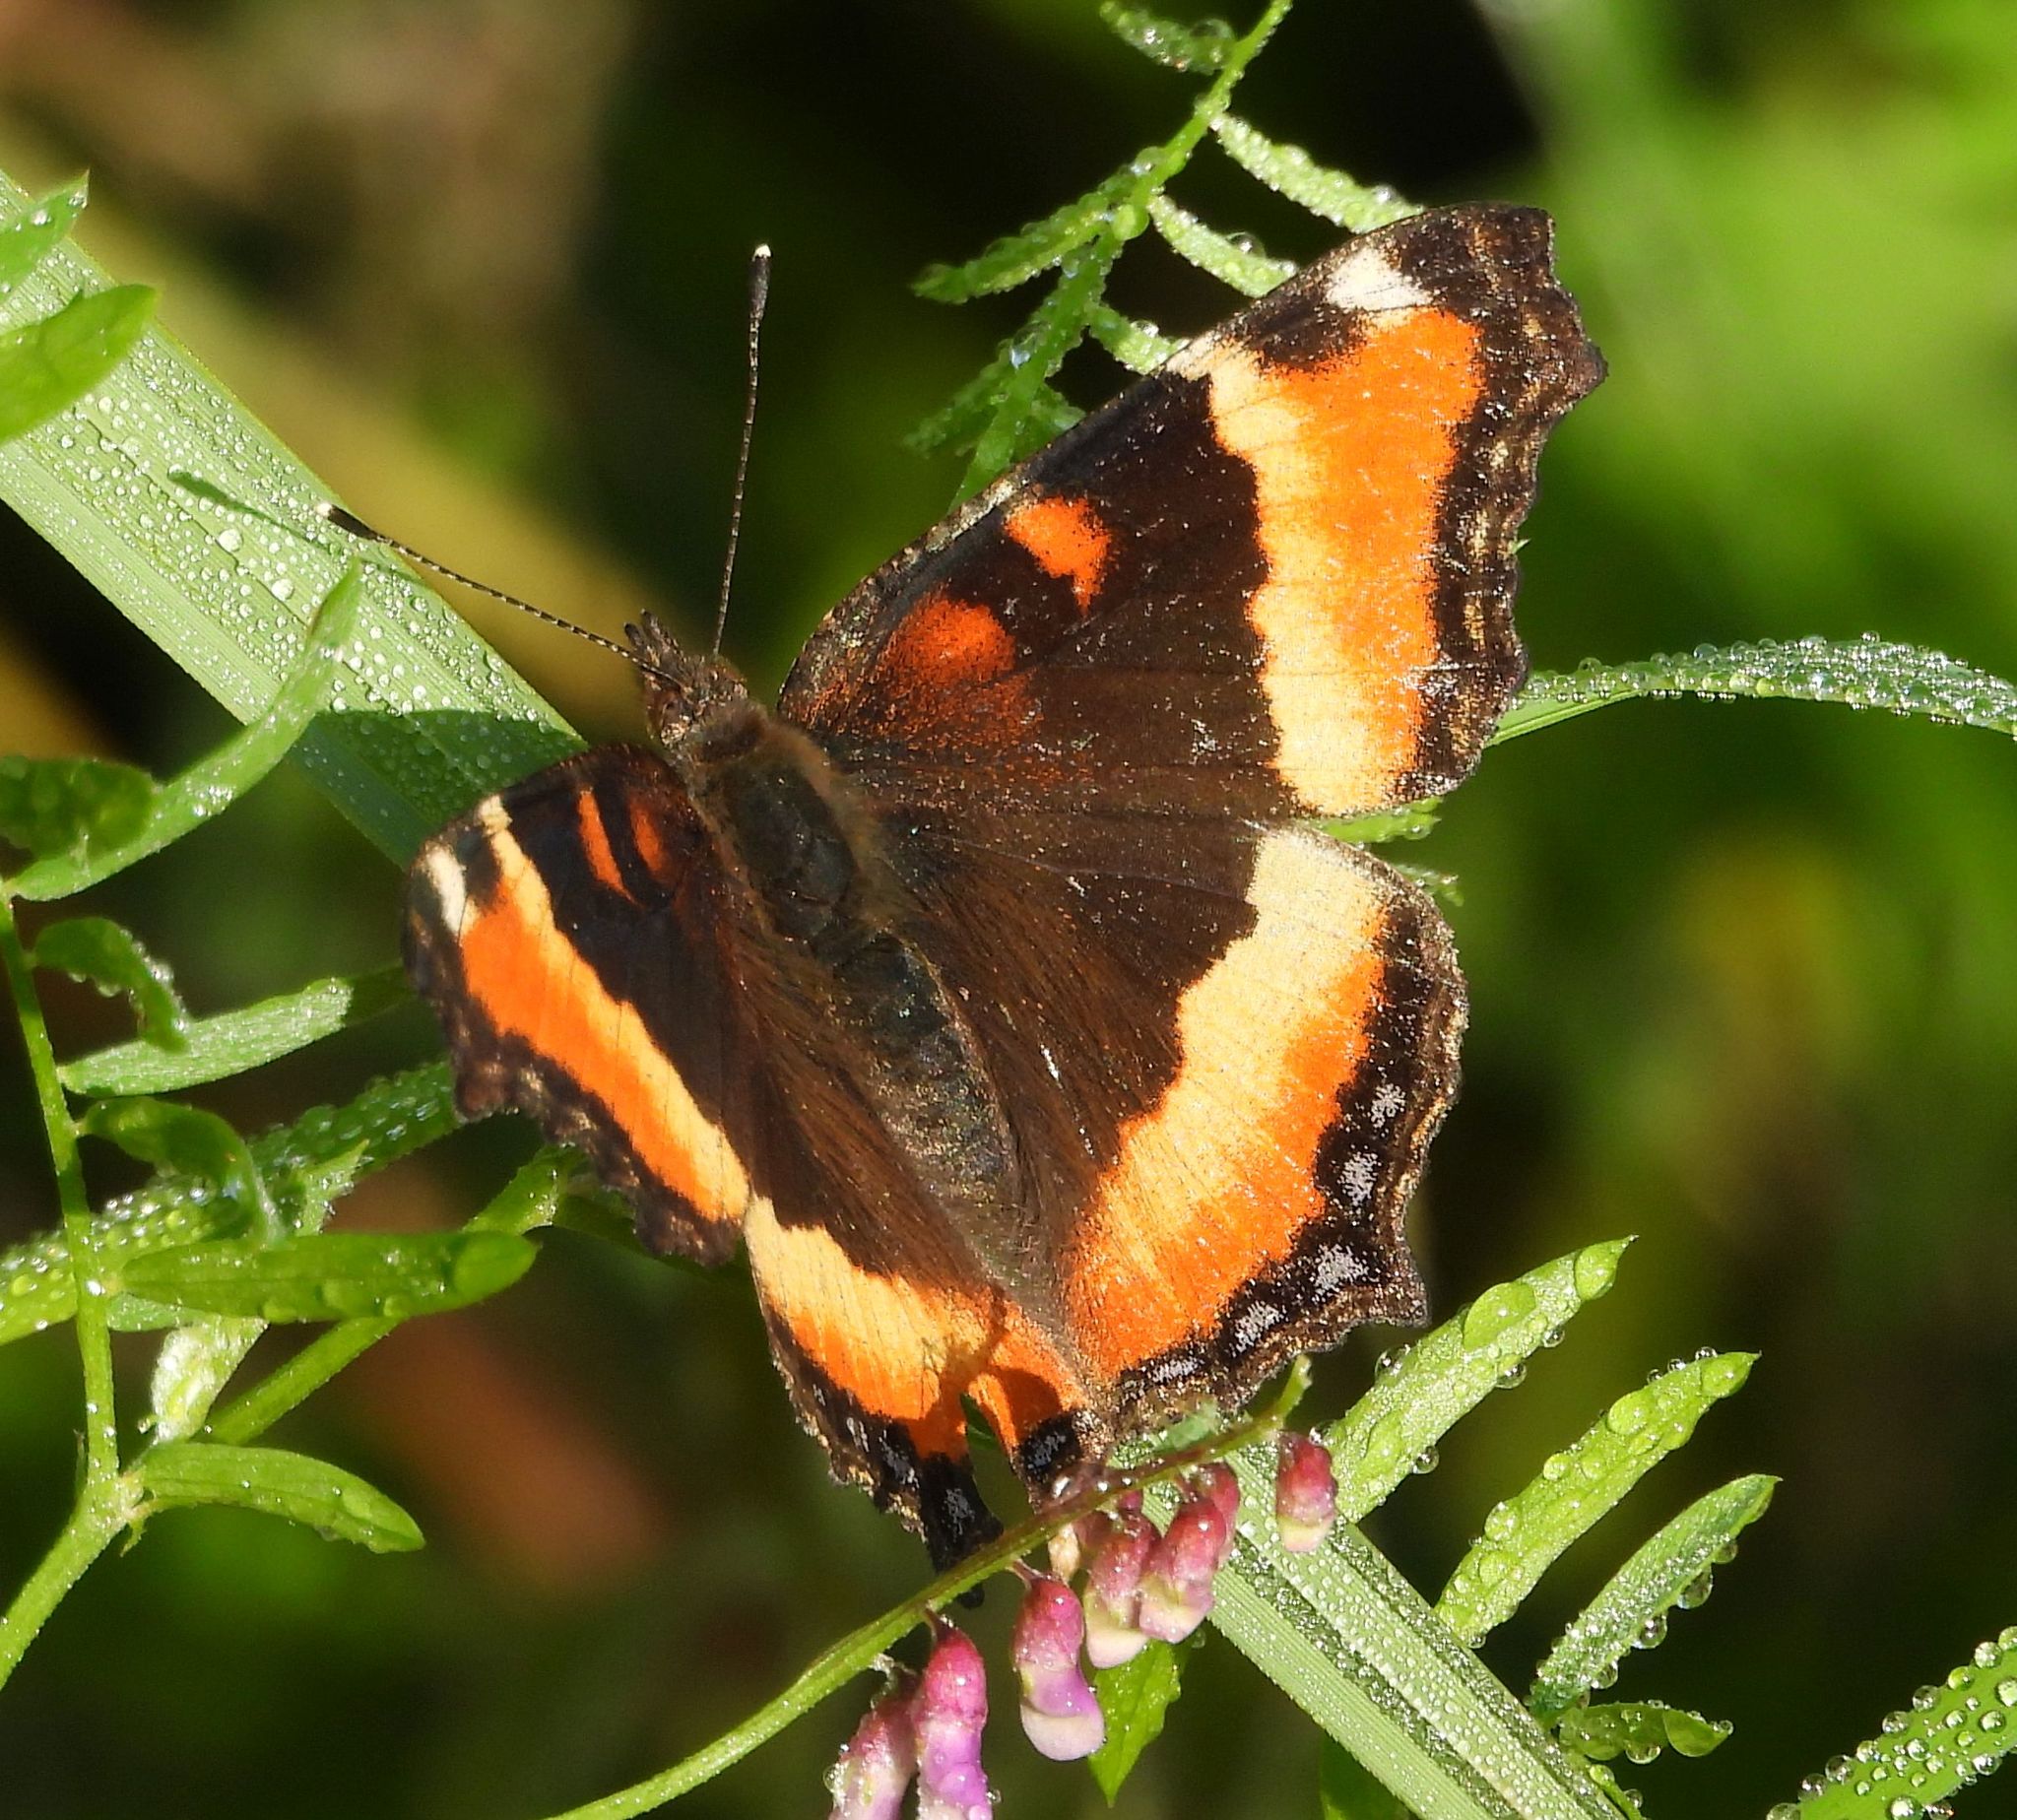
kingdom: Animalia
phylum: Arthropoda
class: Insecta
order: Lepidoptera
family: Nymphalidae
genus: Aglais
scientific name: Aglais milberti
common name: Milbert's tortoiseshell
